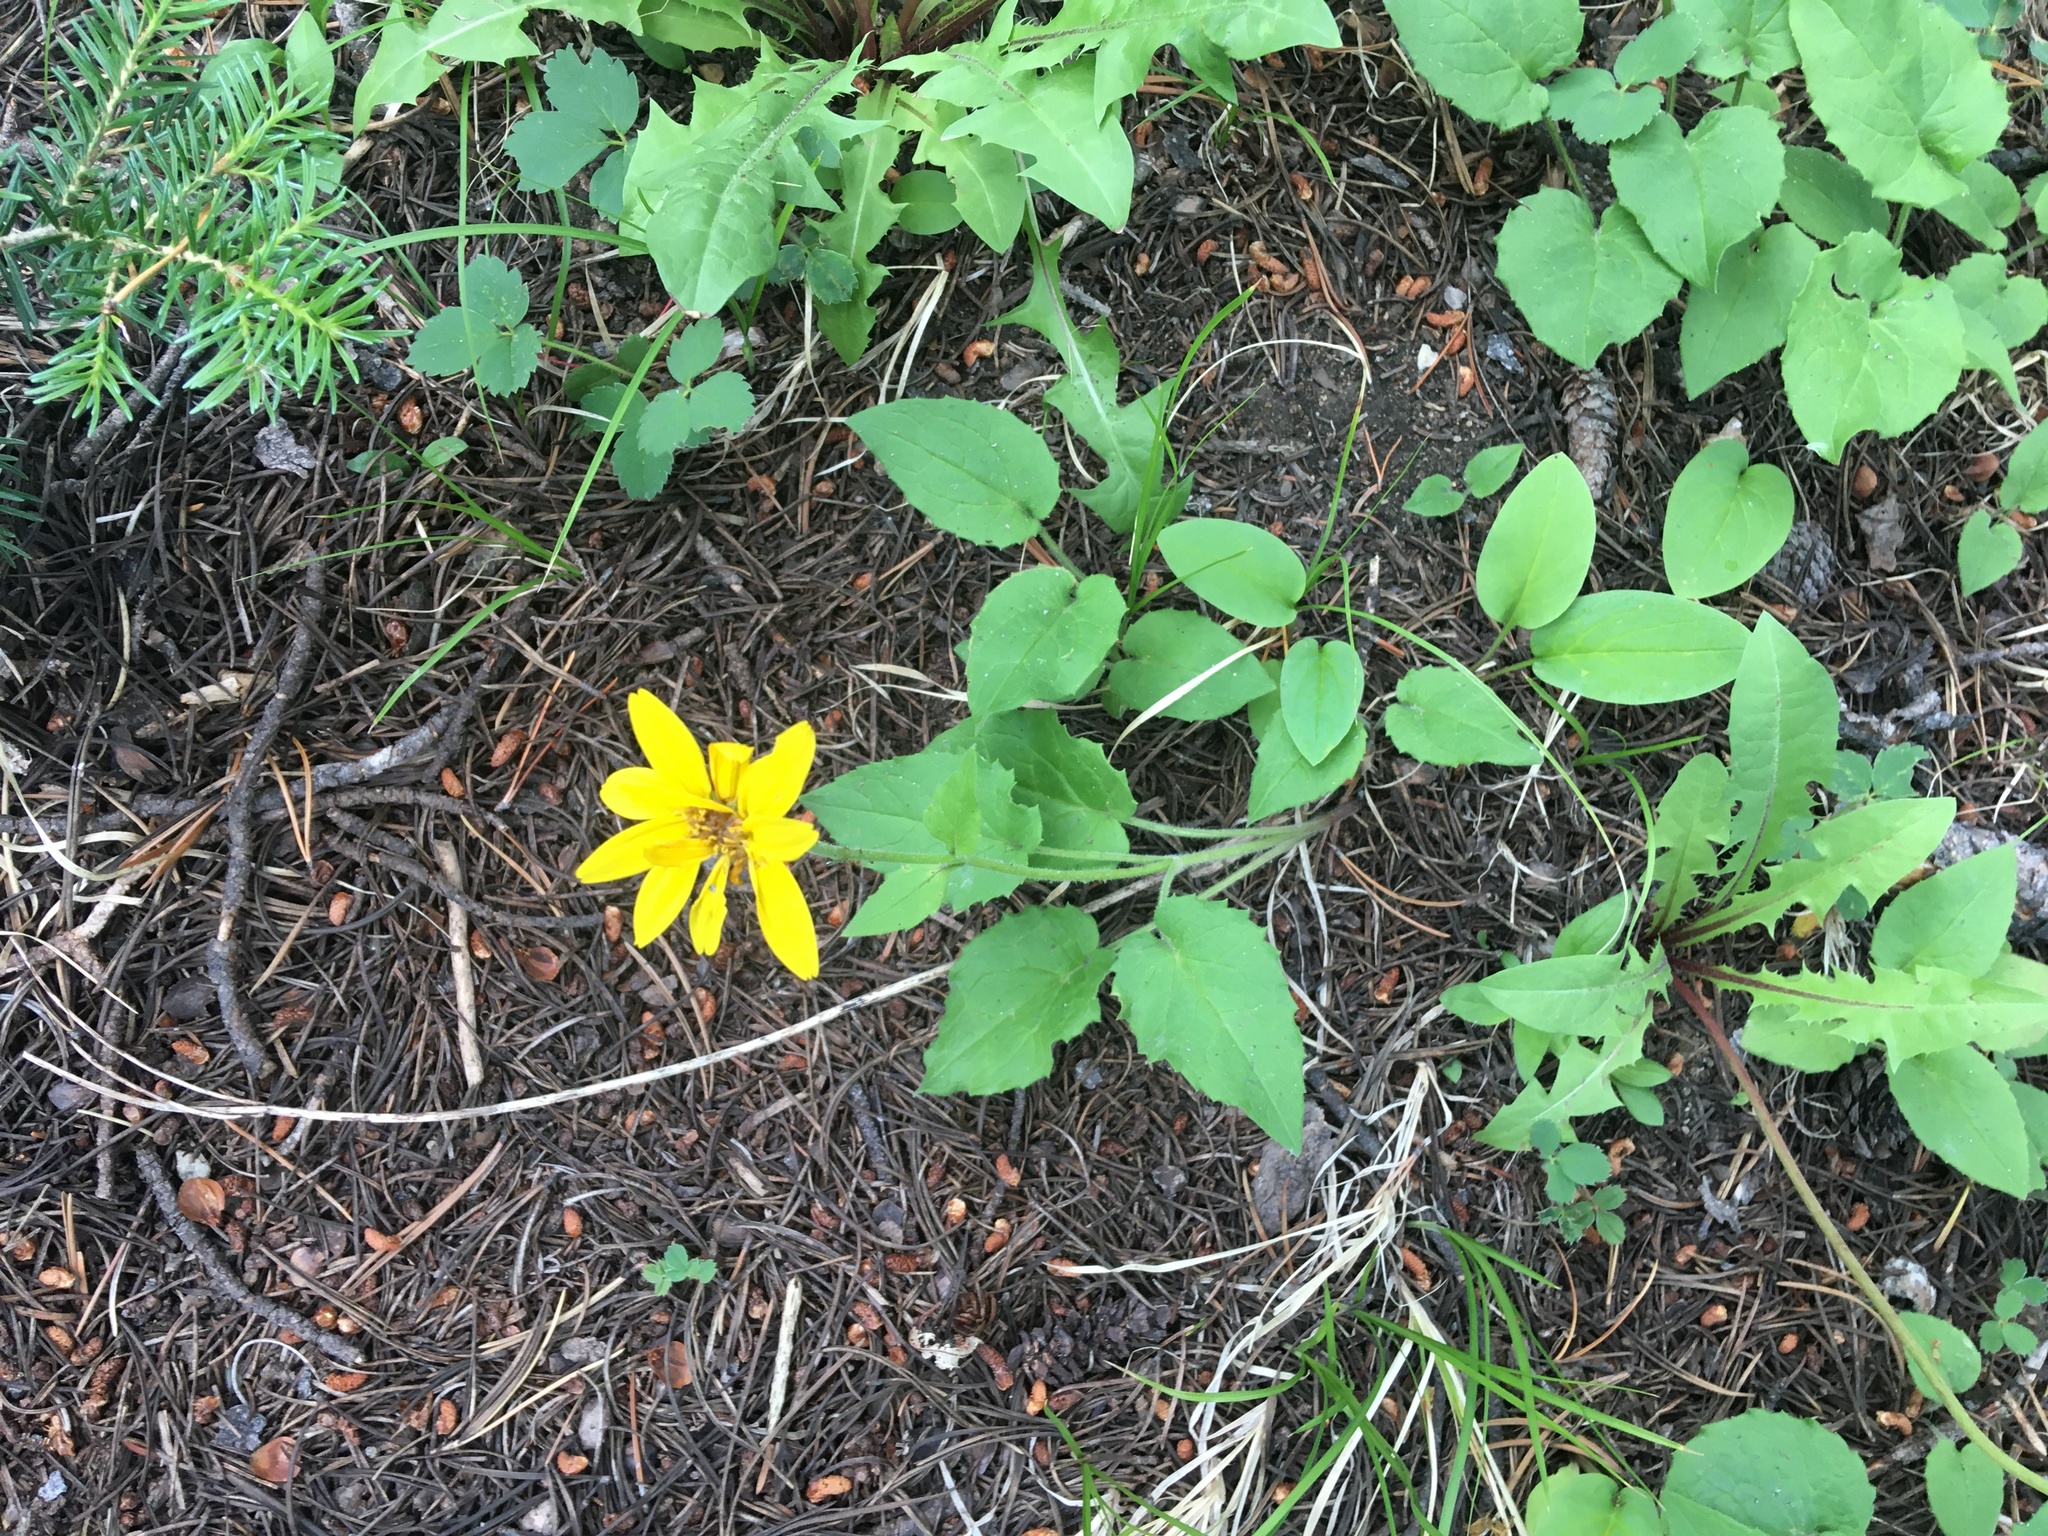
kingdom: Plantae
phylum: Tracheophyta
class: Magnoliopsida
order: Asterales
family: Asteraceae
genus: Arnica
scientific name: Arnica cordifolia
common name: Heart-leaf arnica
